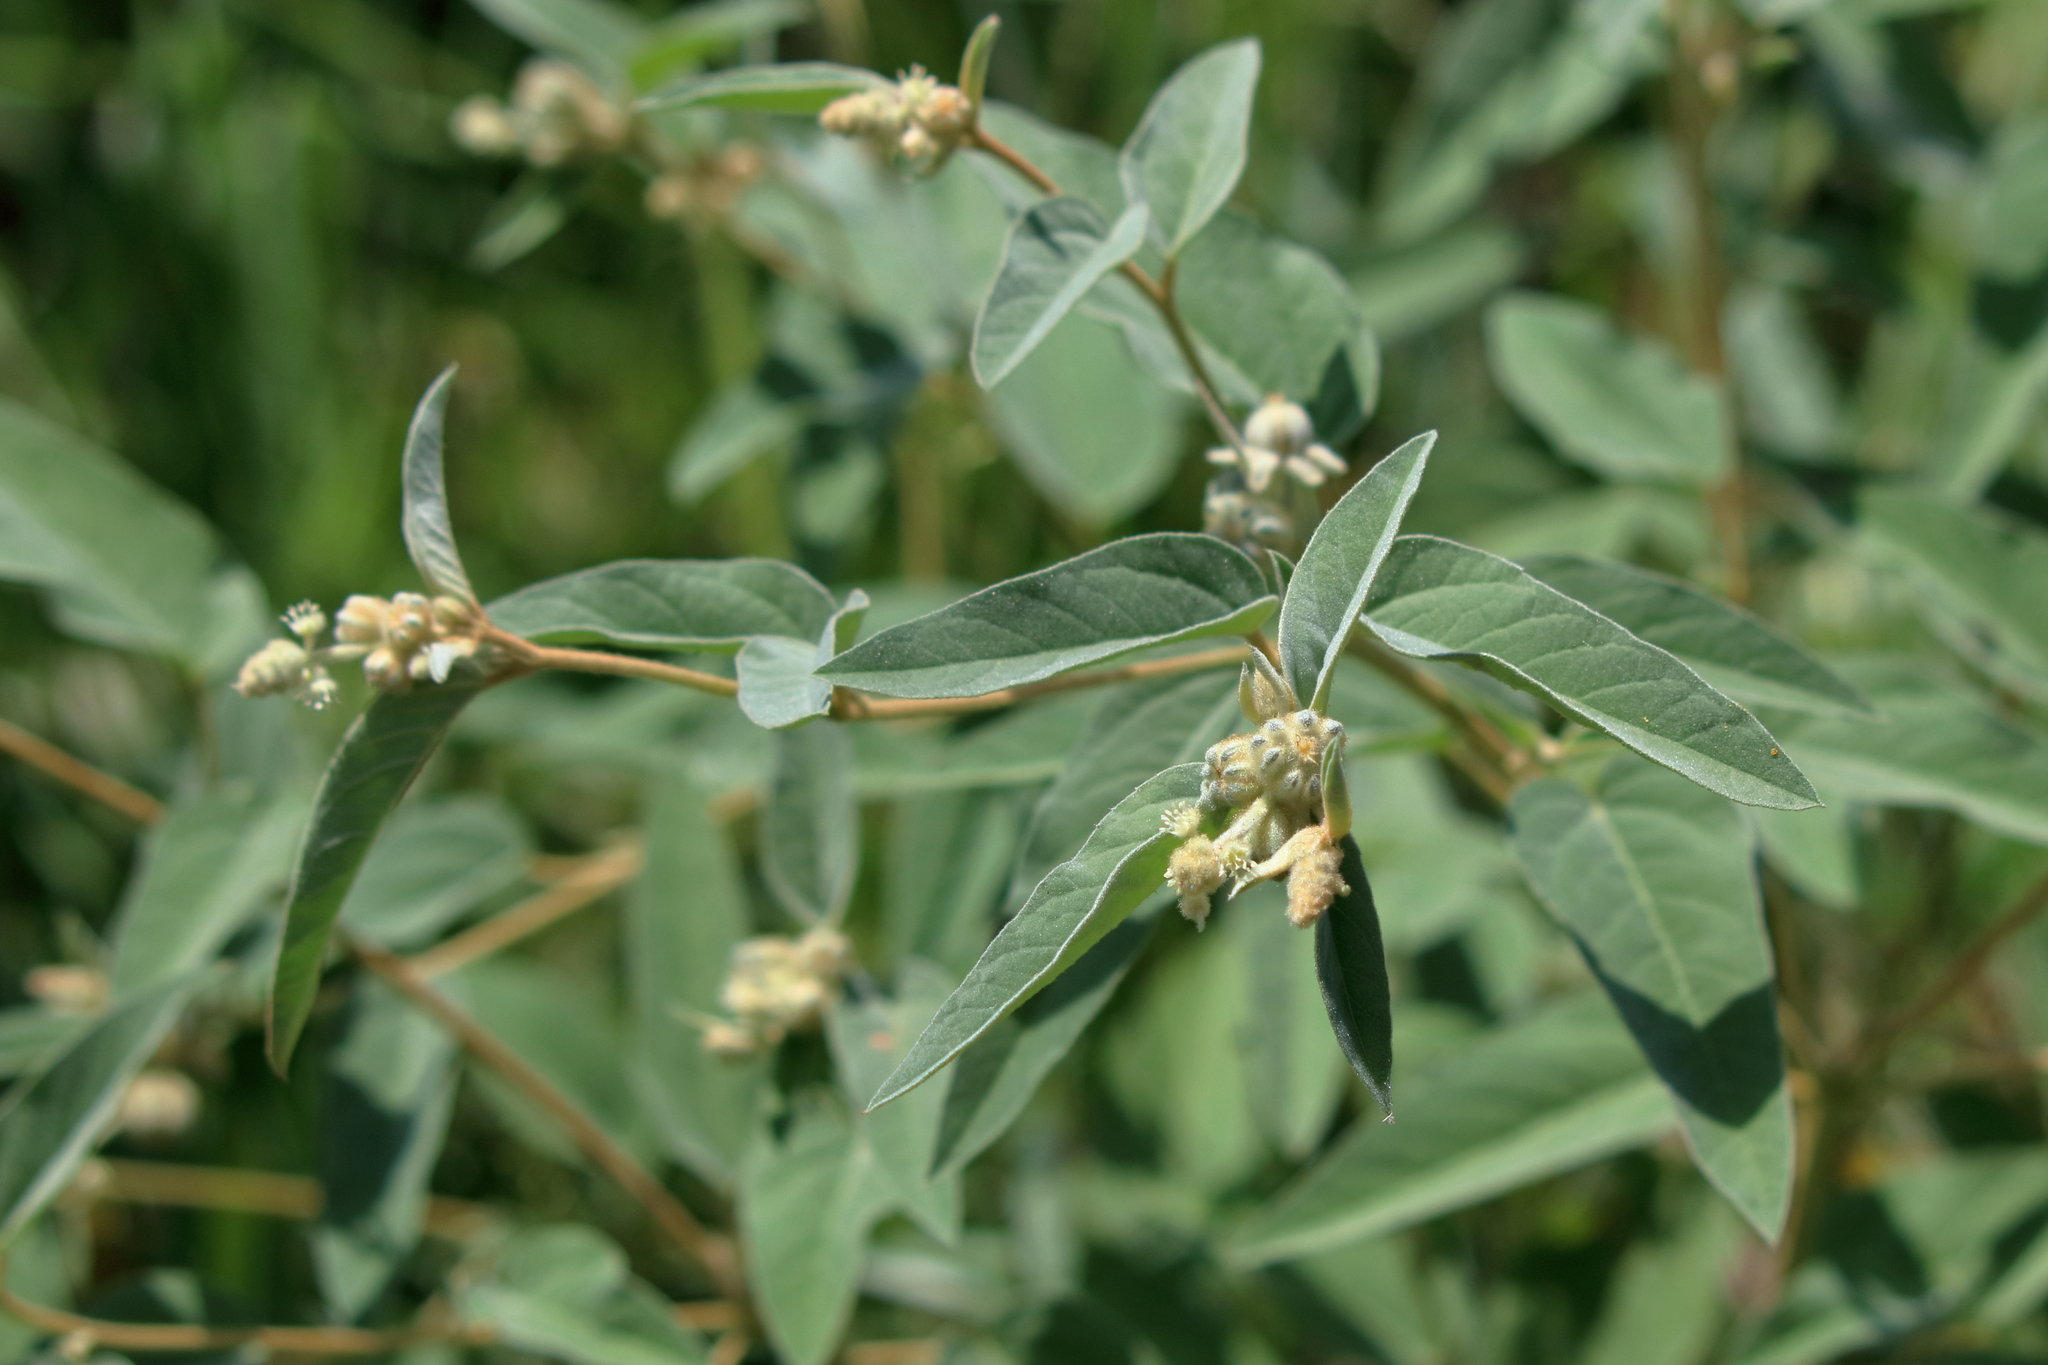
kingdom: Plantae
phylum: Tracheophyta
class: Magnoliopsida
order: Malpighiales
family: Euphorbiaceae
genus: Croton
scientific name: Croton lindheimeri
